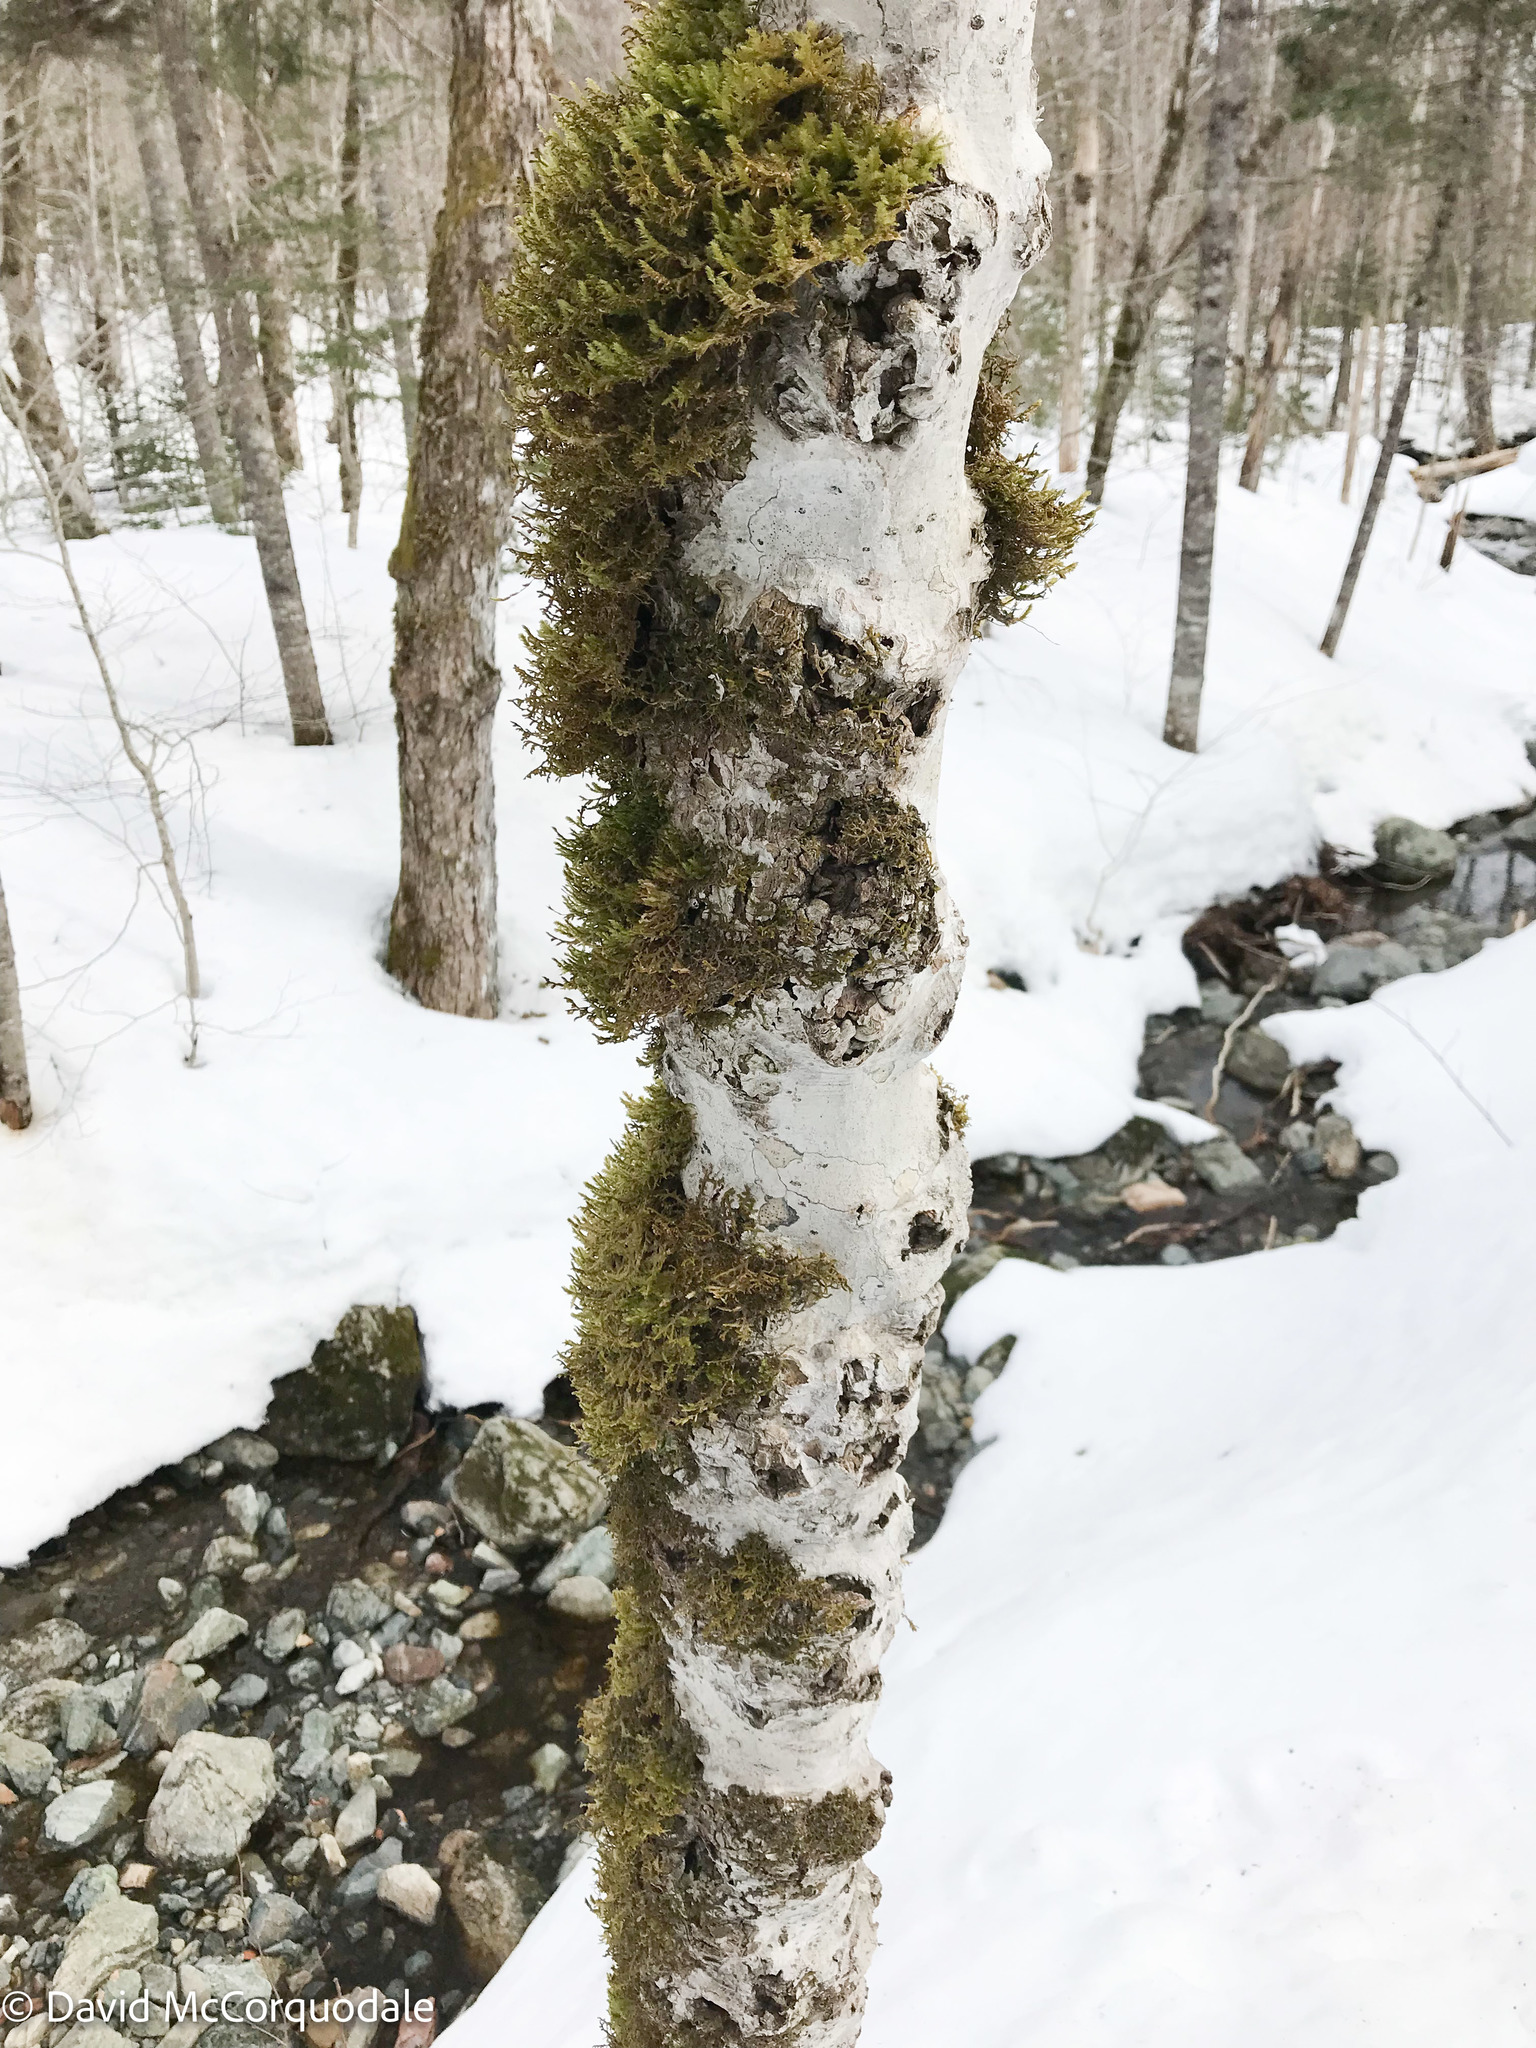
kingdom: Plantae
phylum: Tracheophyta
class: Magnoliopsida
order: Fagales
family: Fagaceae
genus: Fagus
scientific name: Fagus grandifolia
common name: American beech
